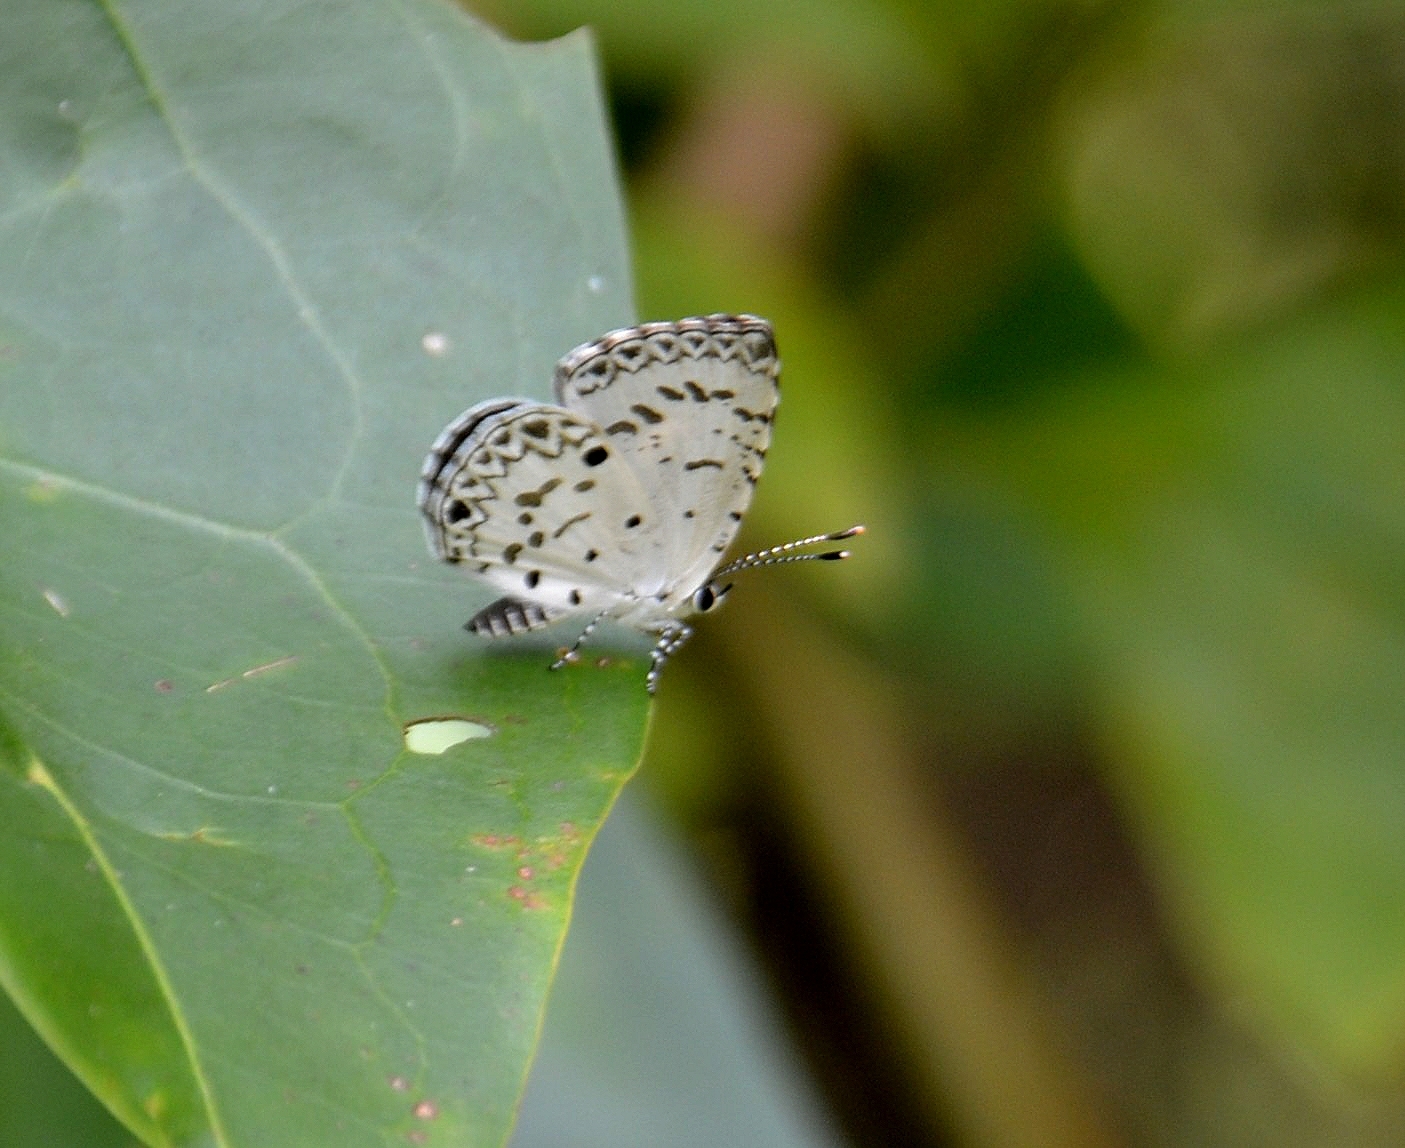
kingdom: Animalia
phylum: Arthropoda
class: Insecta
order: Lepidoptera
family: Lycaenidae
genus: Megisba
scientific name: Megisba malaya
